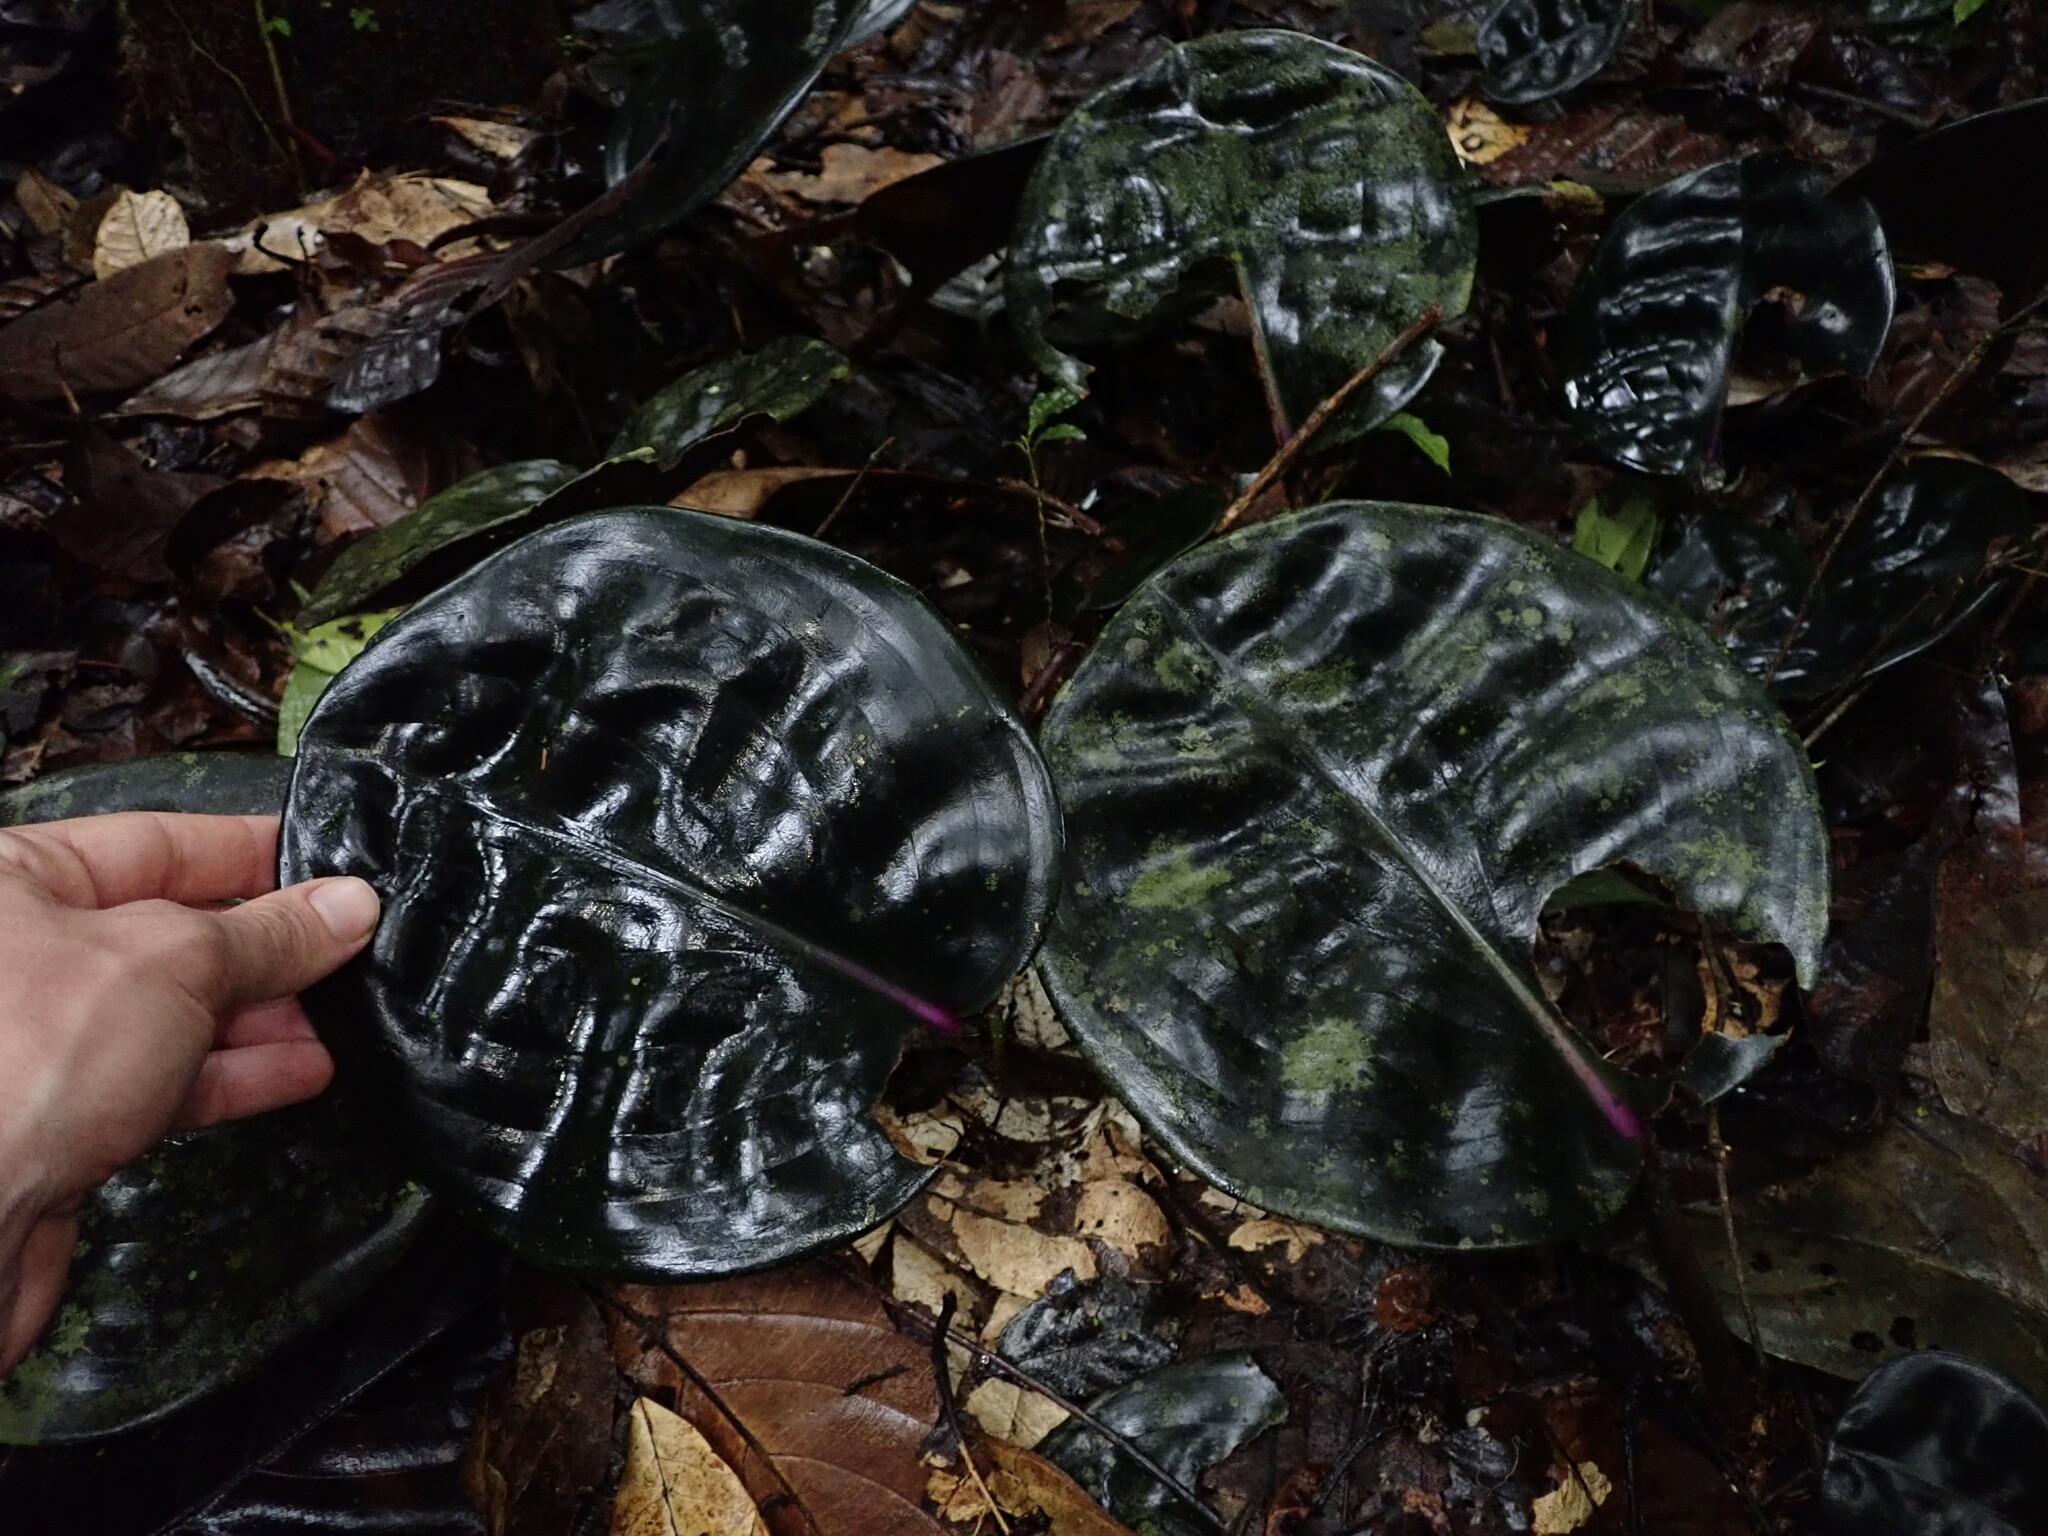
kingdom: Plantae
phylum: Tracheophyta
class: Liliopsida
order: Commelinales
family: Commelinaceae
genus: Geogenanthus
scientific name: Geogenanthus ciliatus
